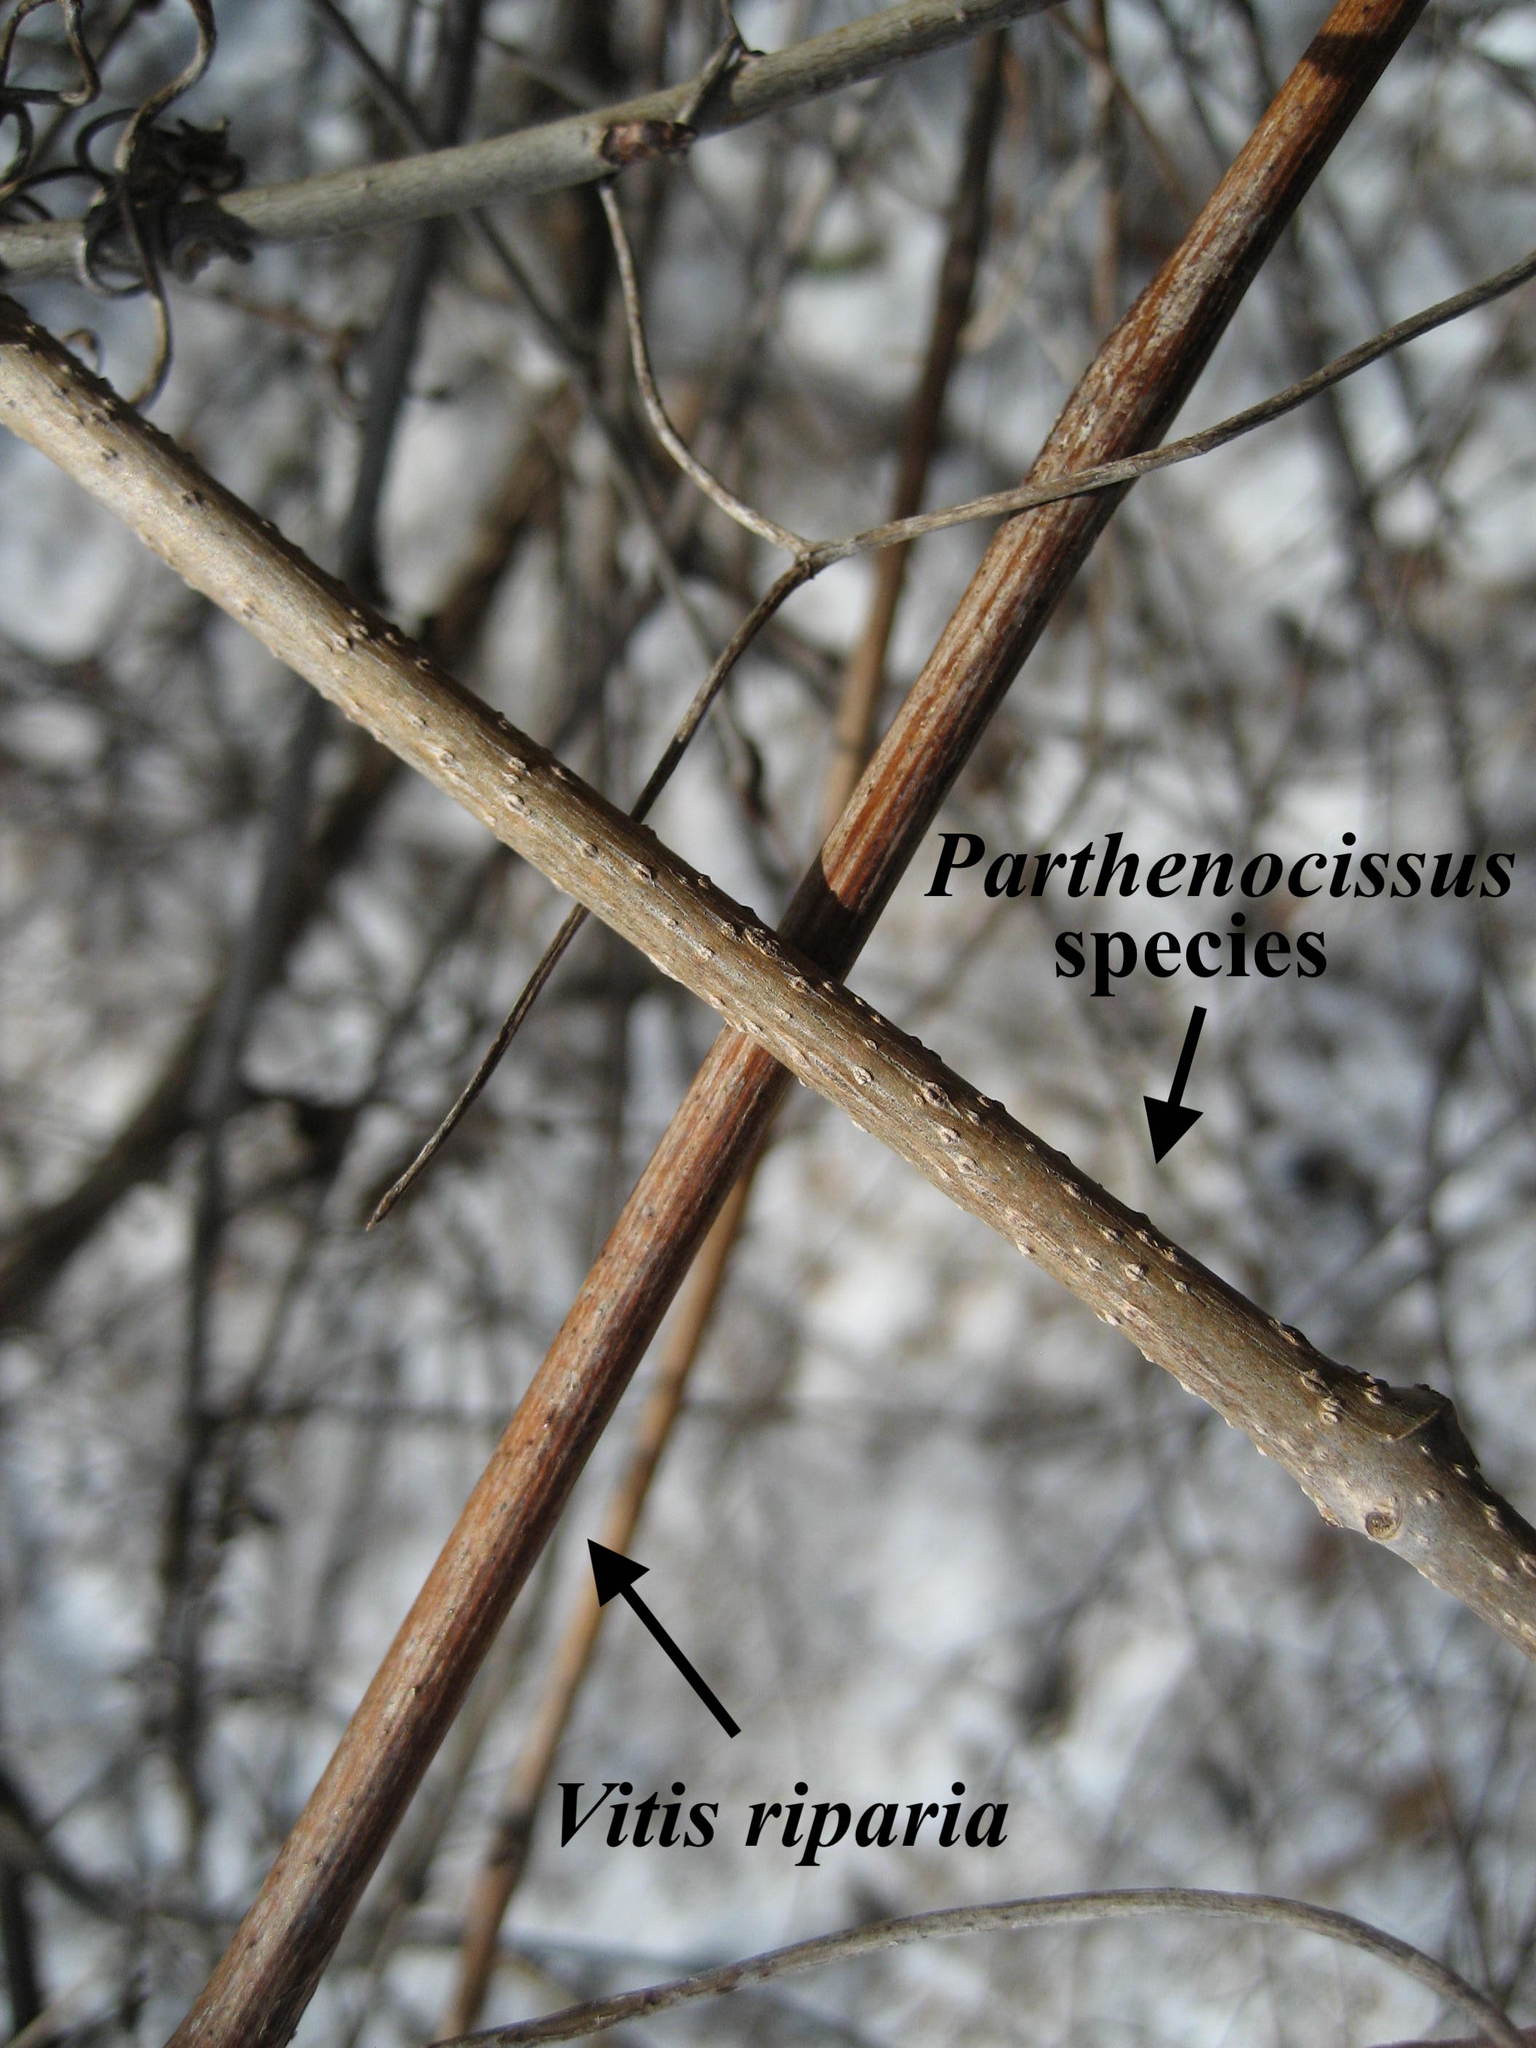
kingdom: Plantae
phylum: Tracheophyta
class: Magnoliopsida
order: Vitales
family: Vitaceae
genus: Vitis
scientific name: Vitis riparia
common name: Frost grape
